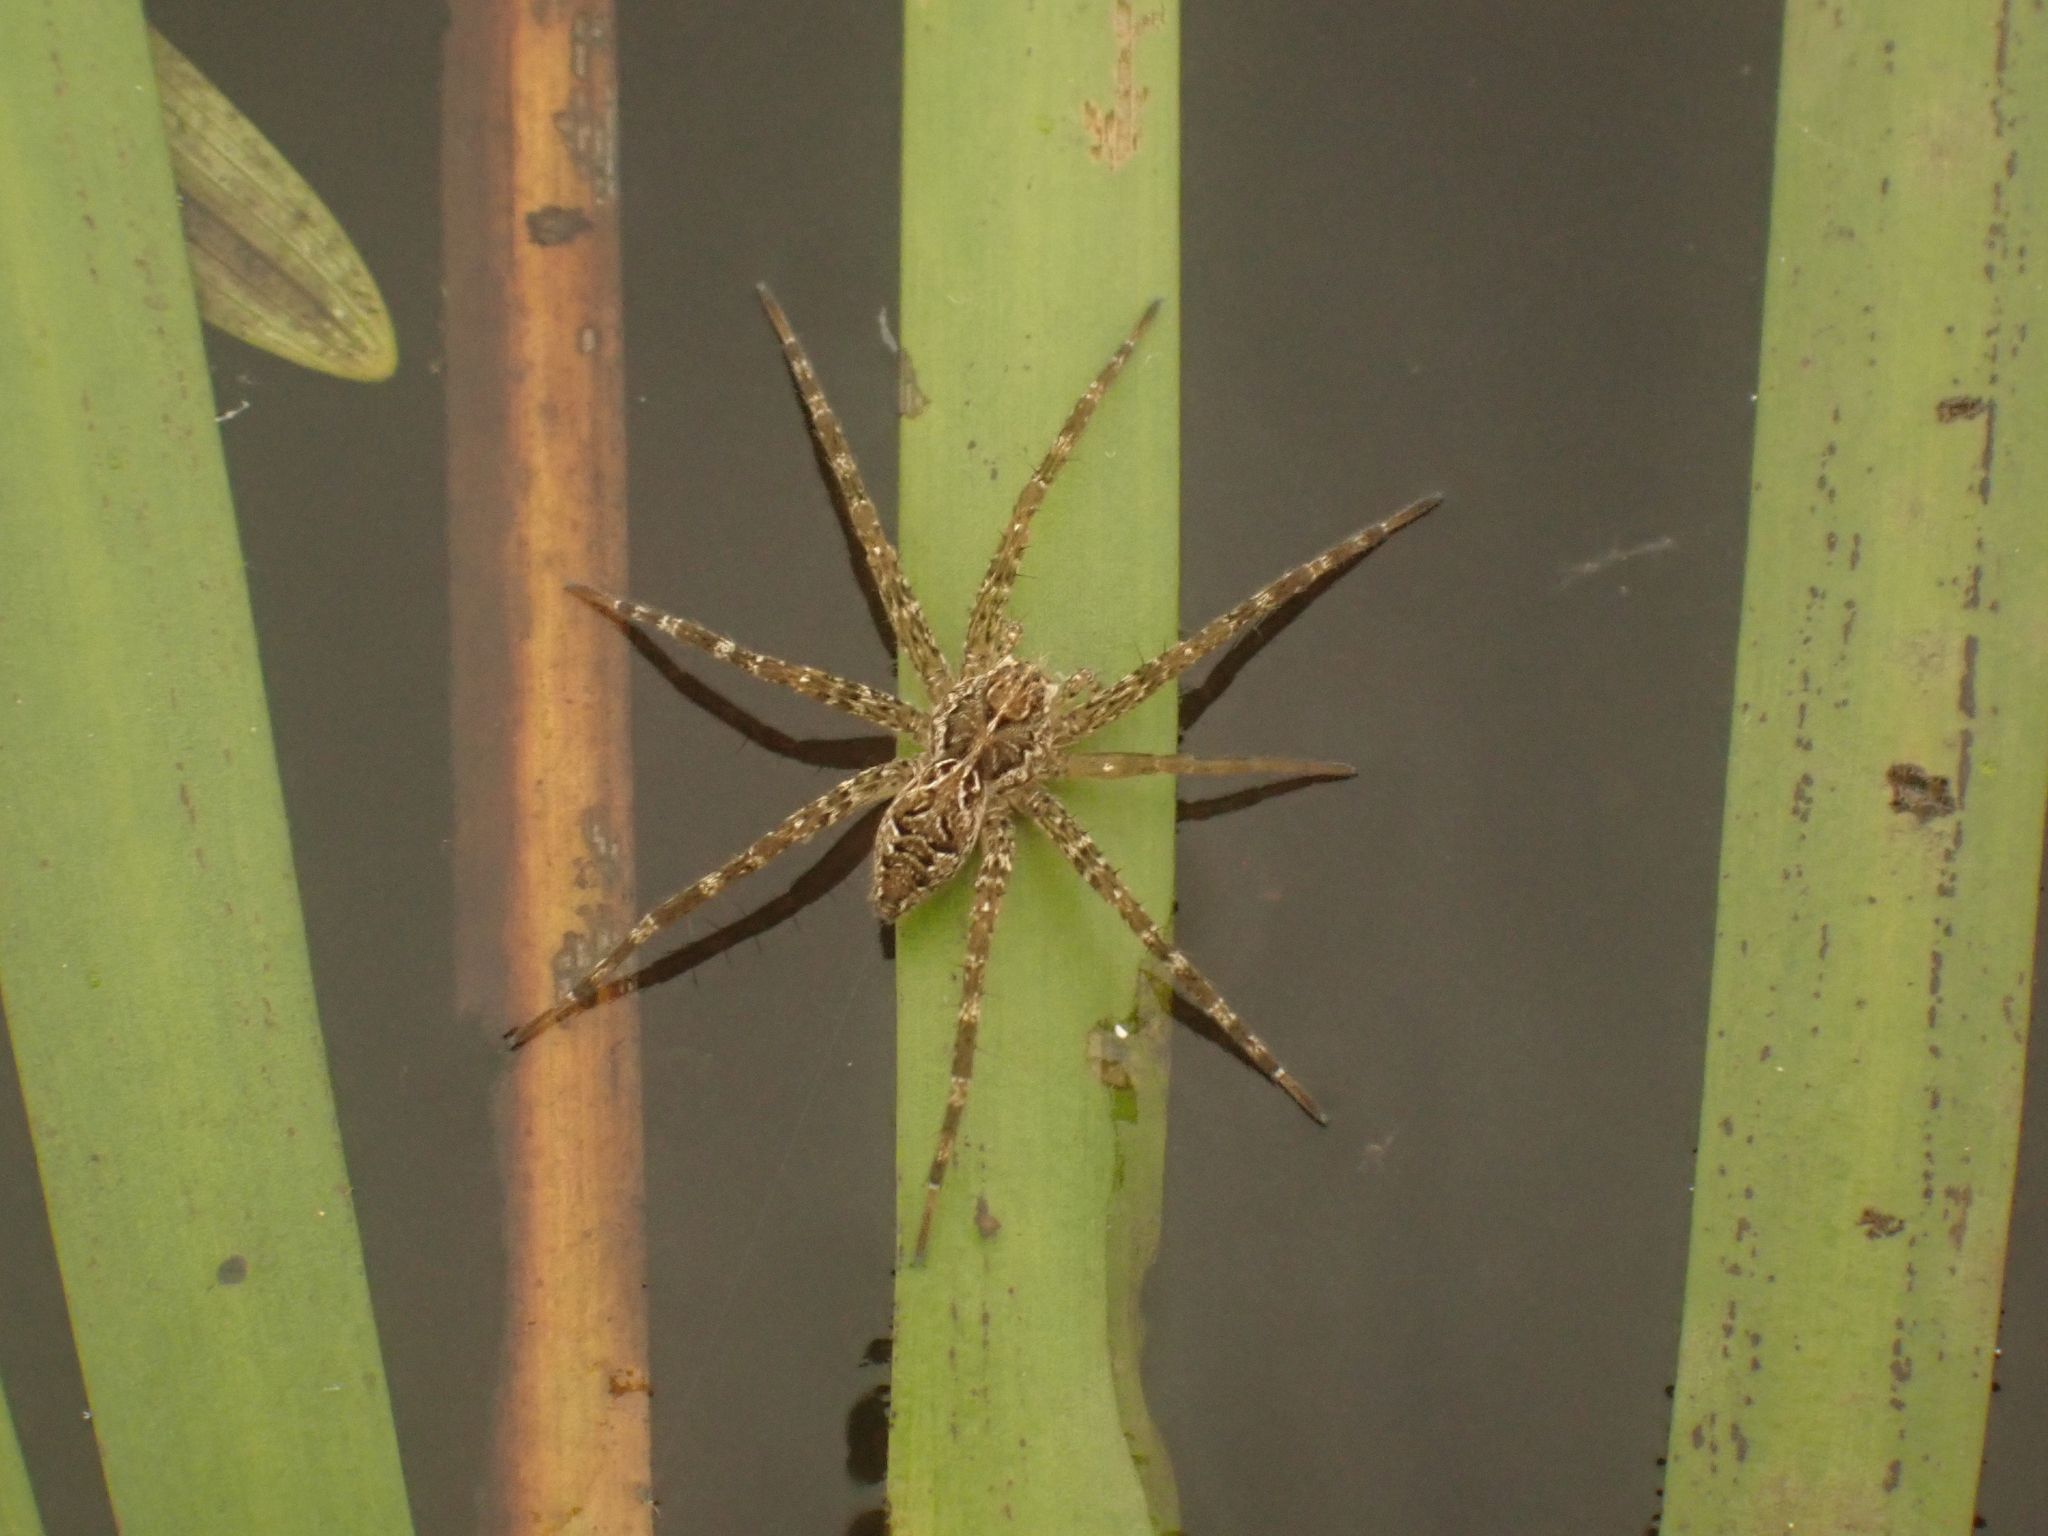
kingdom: Animalia
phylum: Arthropoda
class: Arachnida
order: Araneae
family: Pisauridae
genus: Dolomedes
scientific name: Dolomedes scriptus
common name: Striped fishing spider
